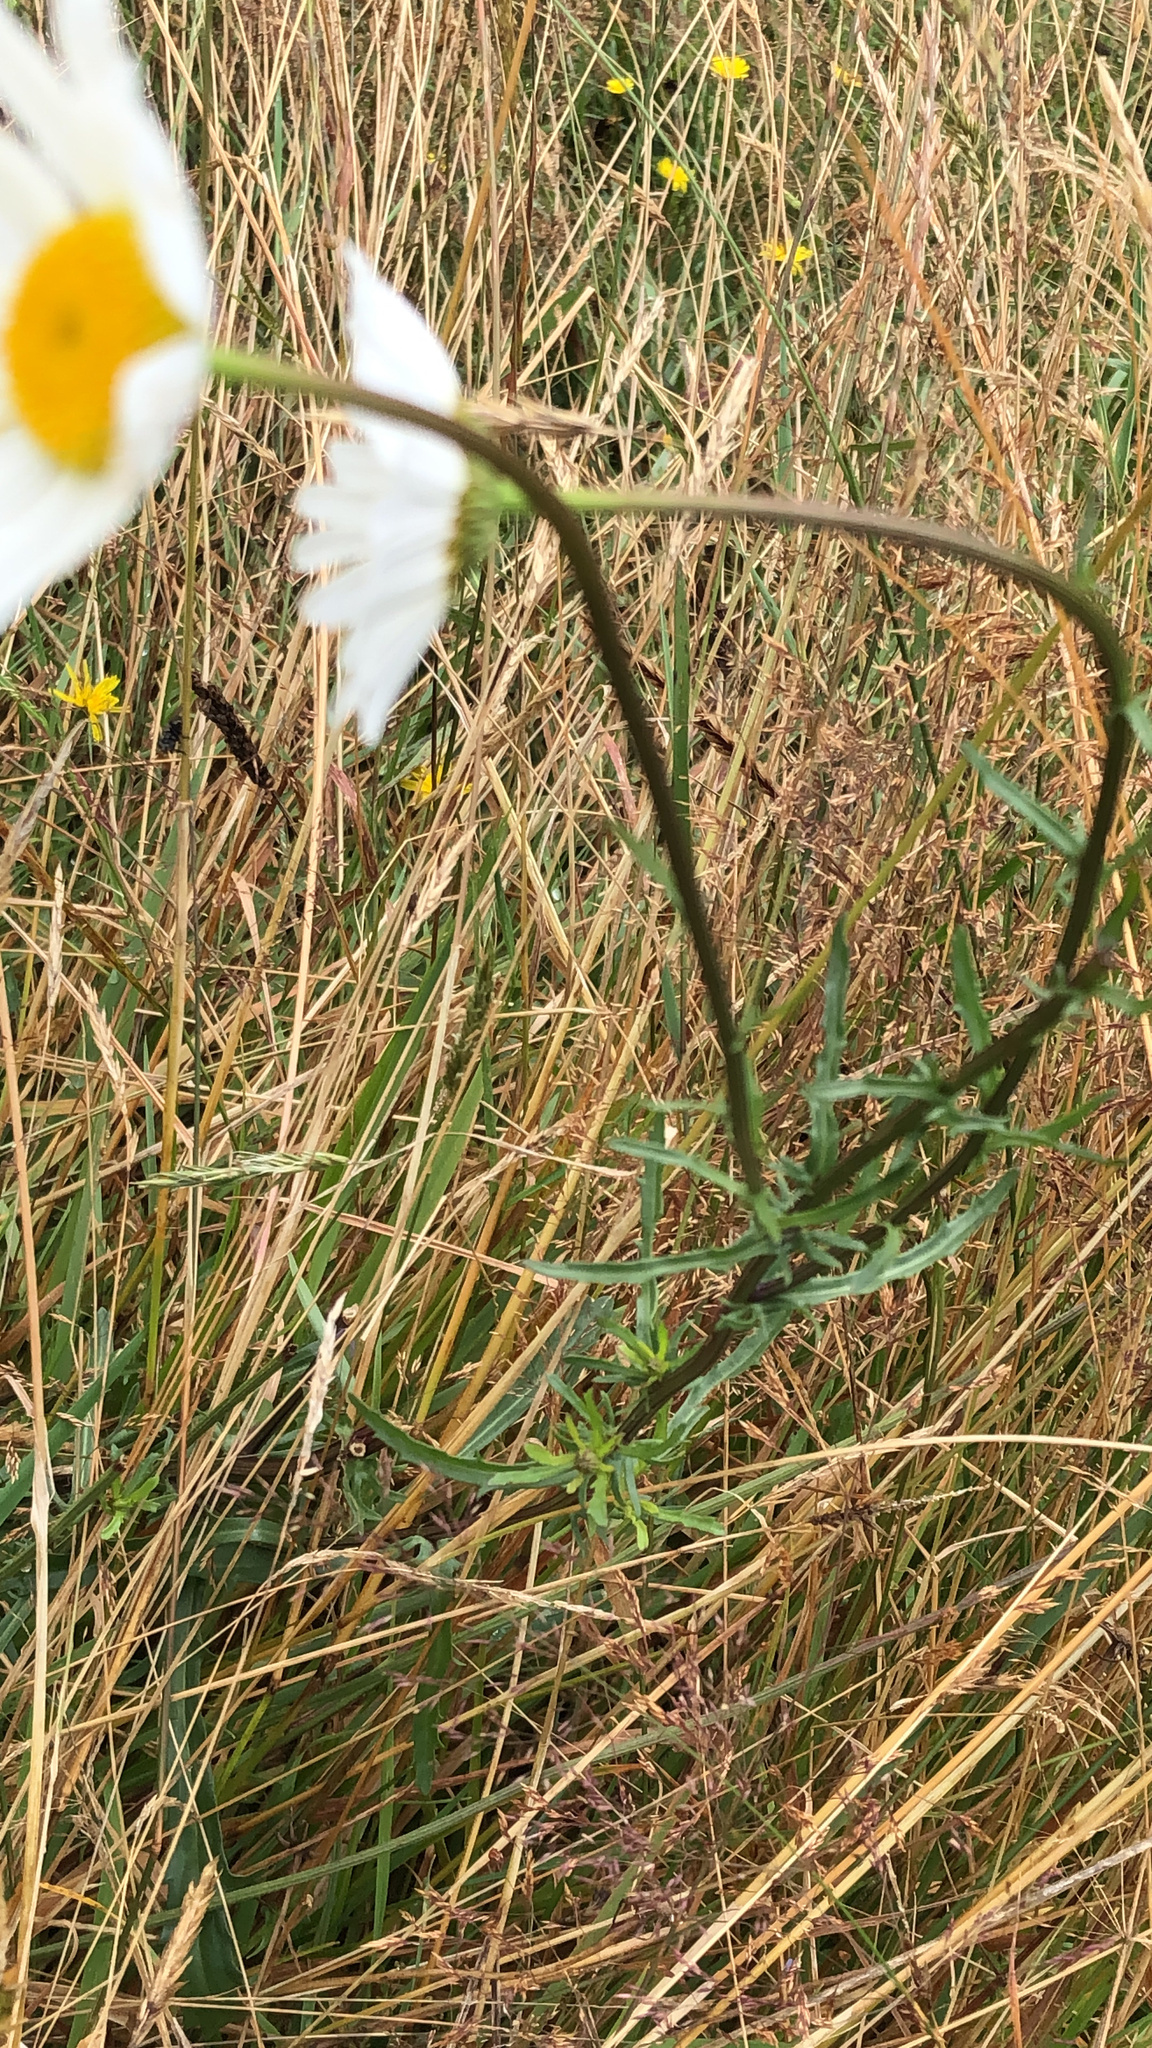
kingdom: Plantae
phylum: Tracheophyta
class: Magnoliopsida
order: Asterales
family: Asteraceae
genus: Leucanthemum
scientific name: Leucanthemum vulgare
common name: Oxeye daisy
